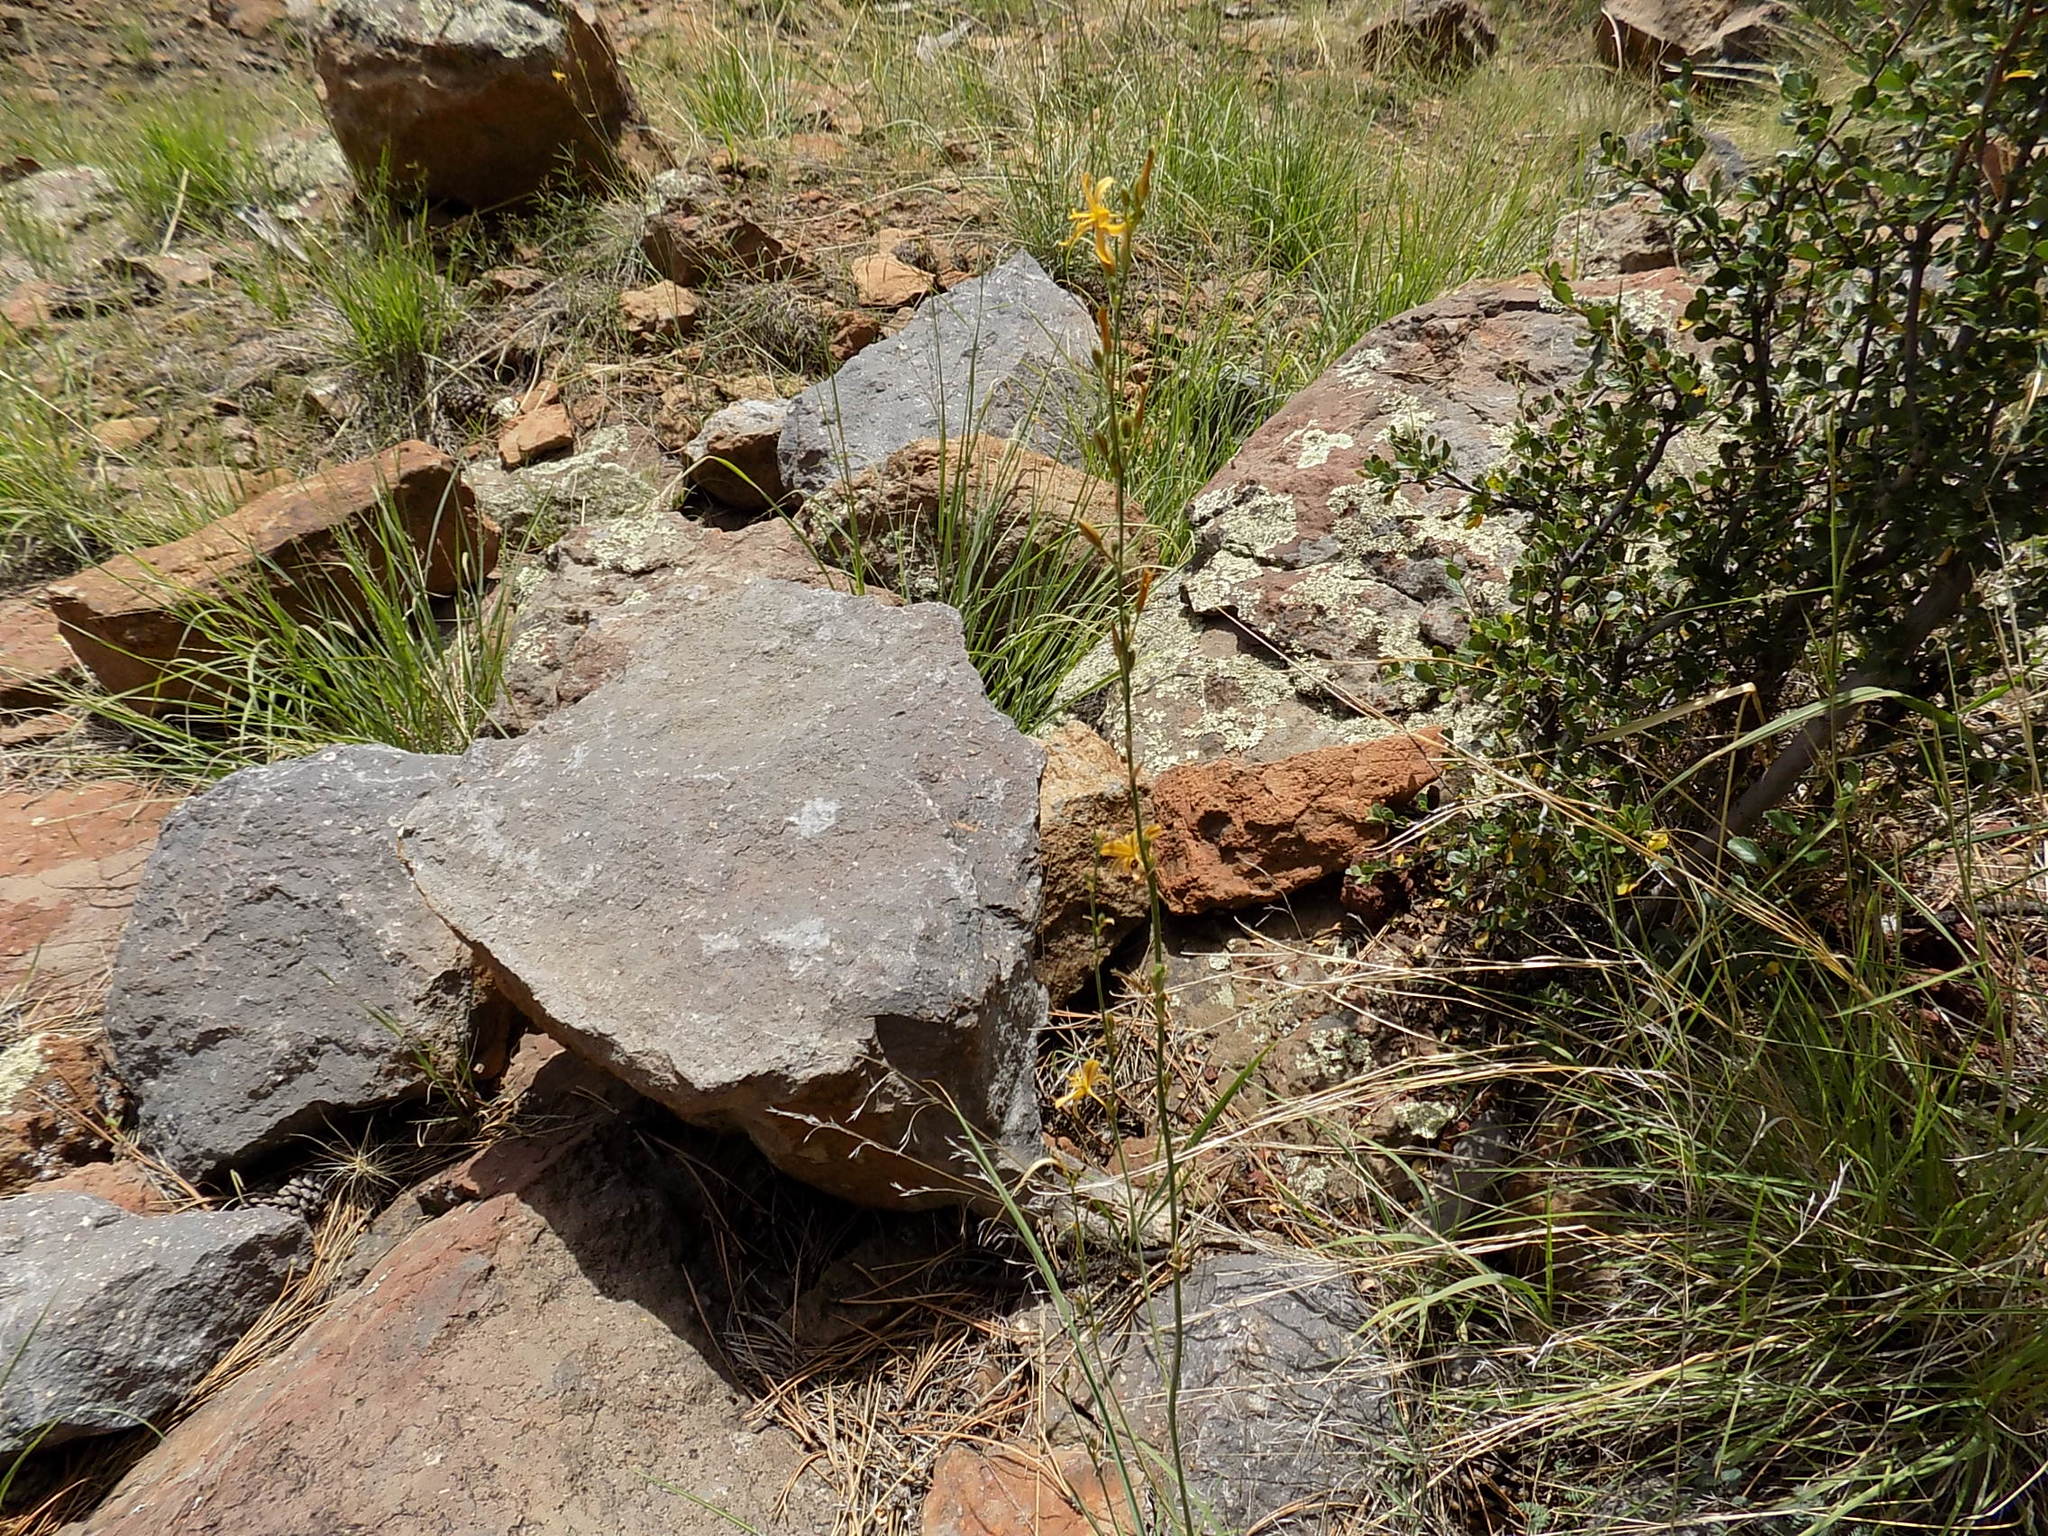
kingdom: Plantae
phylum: Tracheophyta
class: Liliopsida
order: Asparagales
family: Asparagaceae
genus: Echeandia
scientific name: Echeandia flavescens
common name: Amberlily
